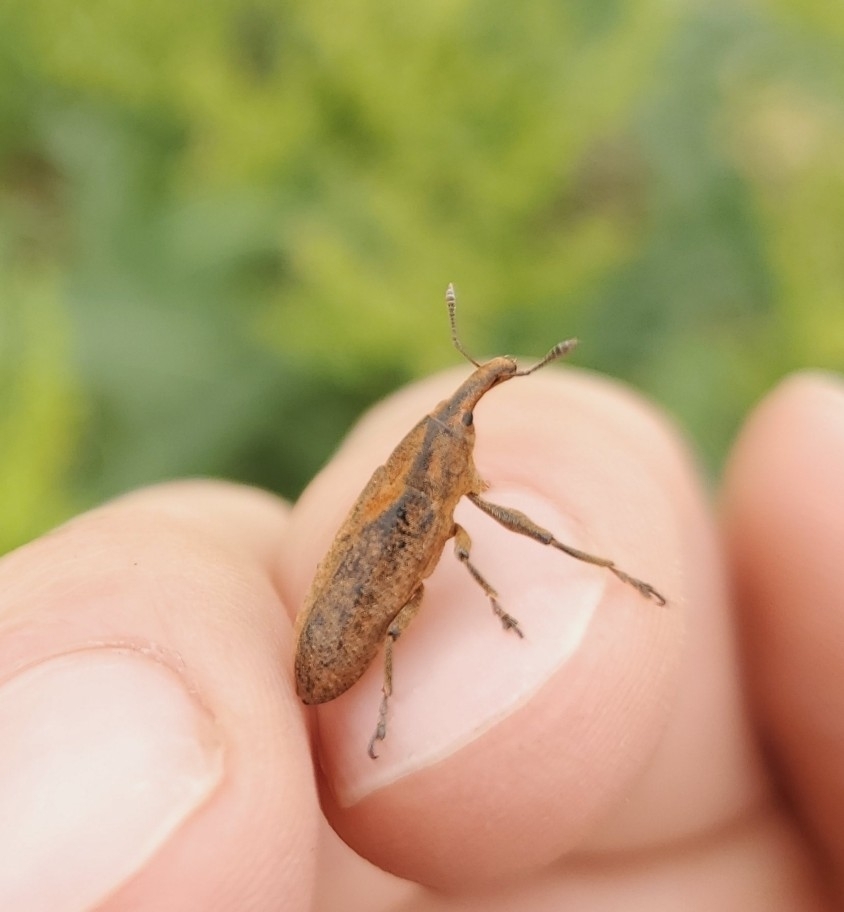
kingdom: Animalia
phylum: Arthropoda
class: Insecta
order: Coleoptera
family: Curculionidae
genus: Lixus
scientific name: Lixus concavus
